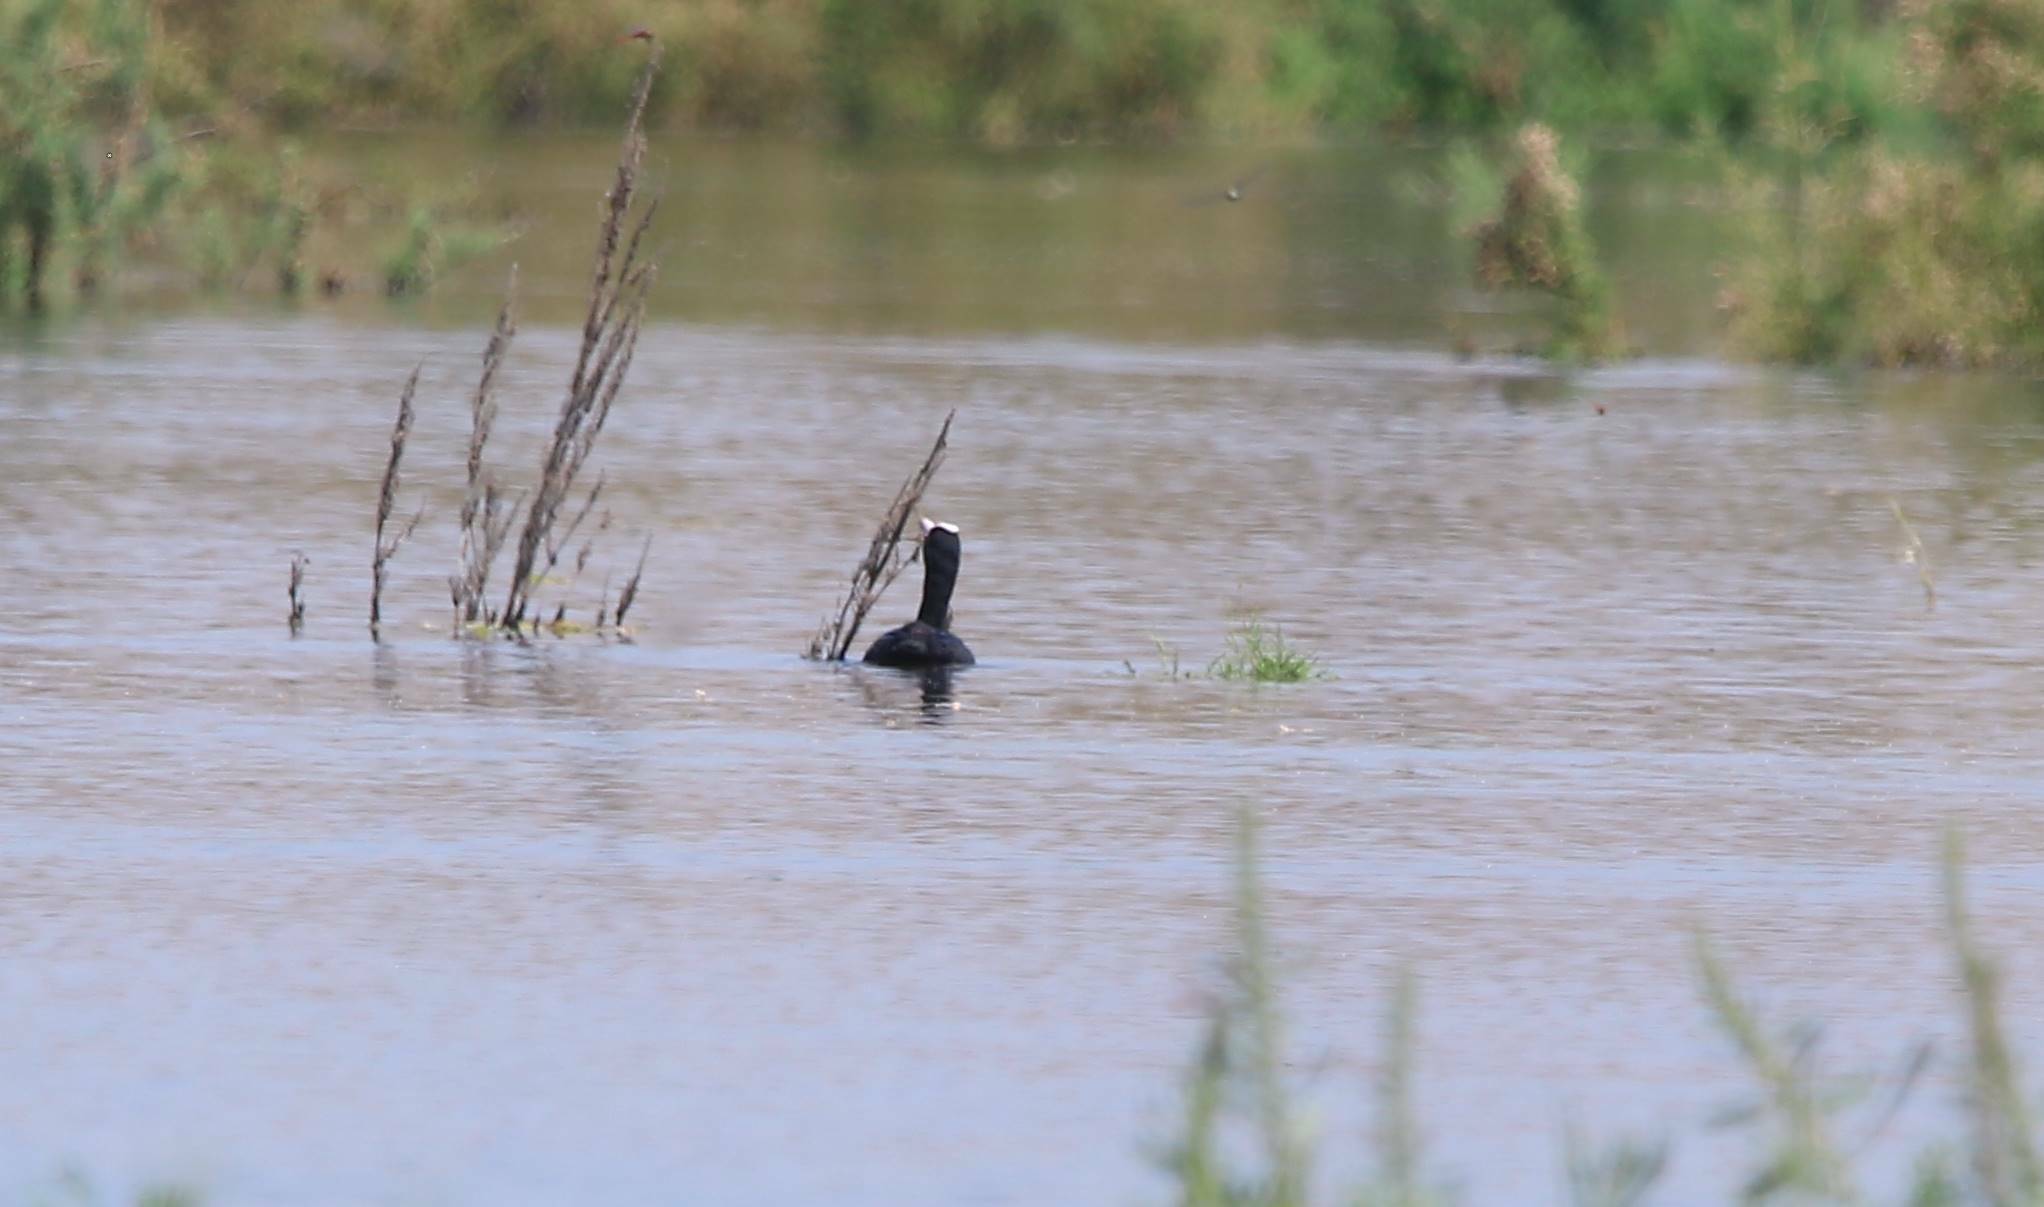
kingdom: Animalia
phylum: Chordata
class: Aves
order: Gruiformes
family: Rallidae
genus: Fulica
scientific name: Fulica atra
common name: Eurasian coot
